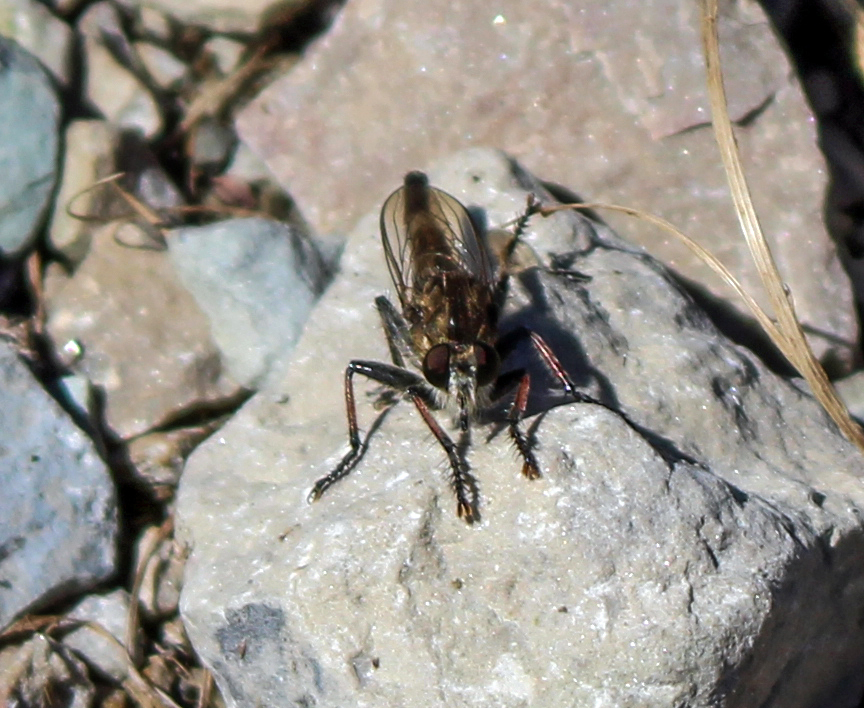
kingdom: Animalia
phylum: Arthropoda
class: Insecta
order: Diptera
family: Asilidae
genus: Efferia
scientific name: Efferia albibarbis
